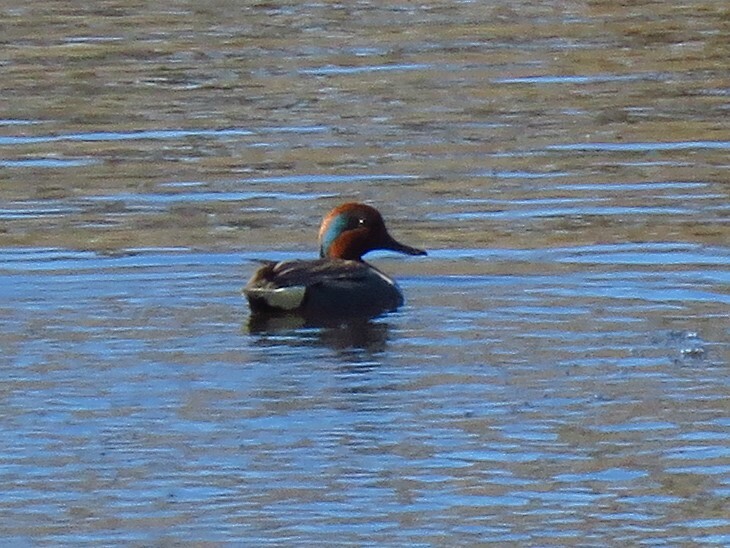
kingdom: Animalia
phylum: Chordata
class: Aves
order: Anseriformes
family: Anatidae
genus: Anas
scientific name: Anas carolinensis
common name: Green-winged teal
